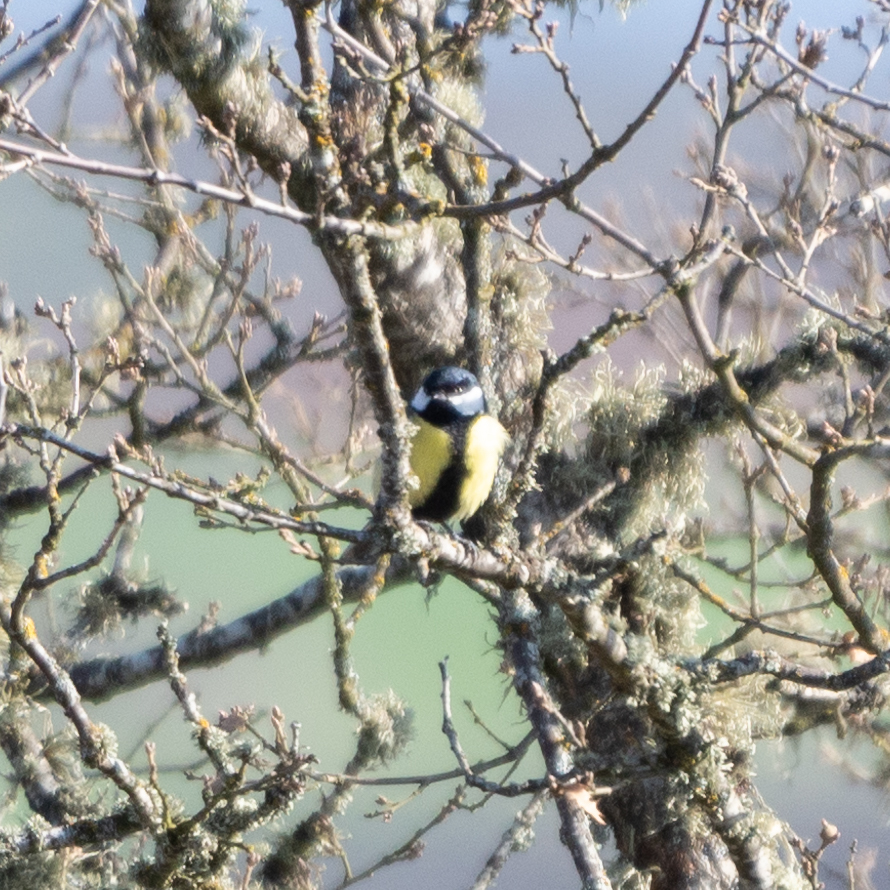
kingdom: Animalia
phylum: Chordata
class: Aves
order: Passeriformes
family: Paridae
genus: Parus
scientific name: Parus major
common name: Great tit
